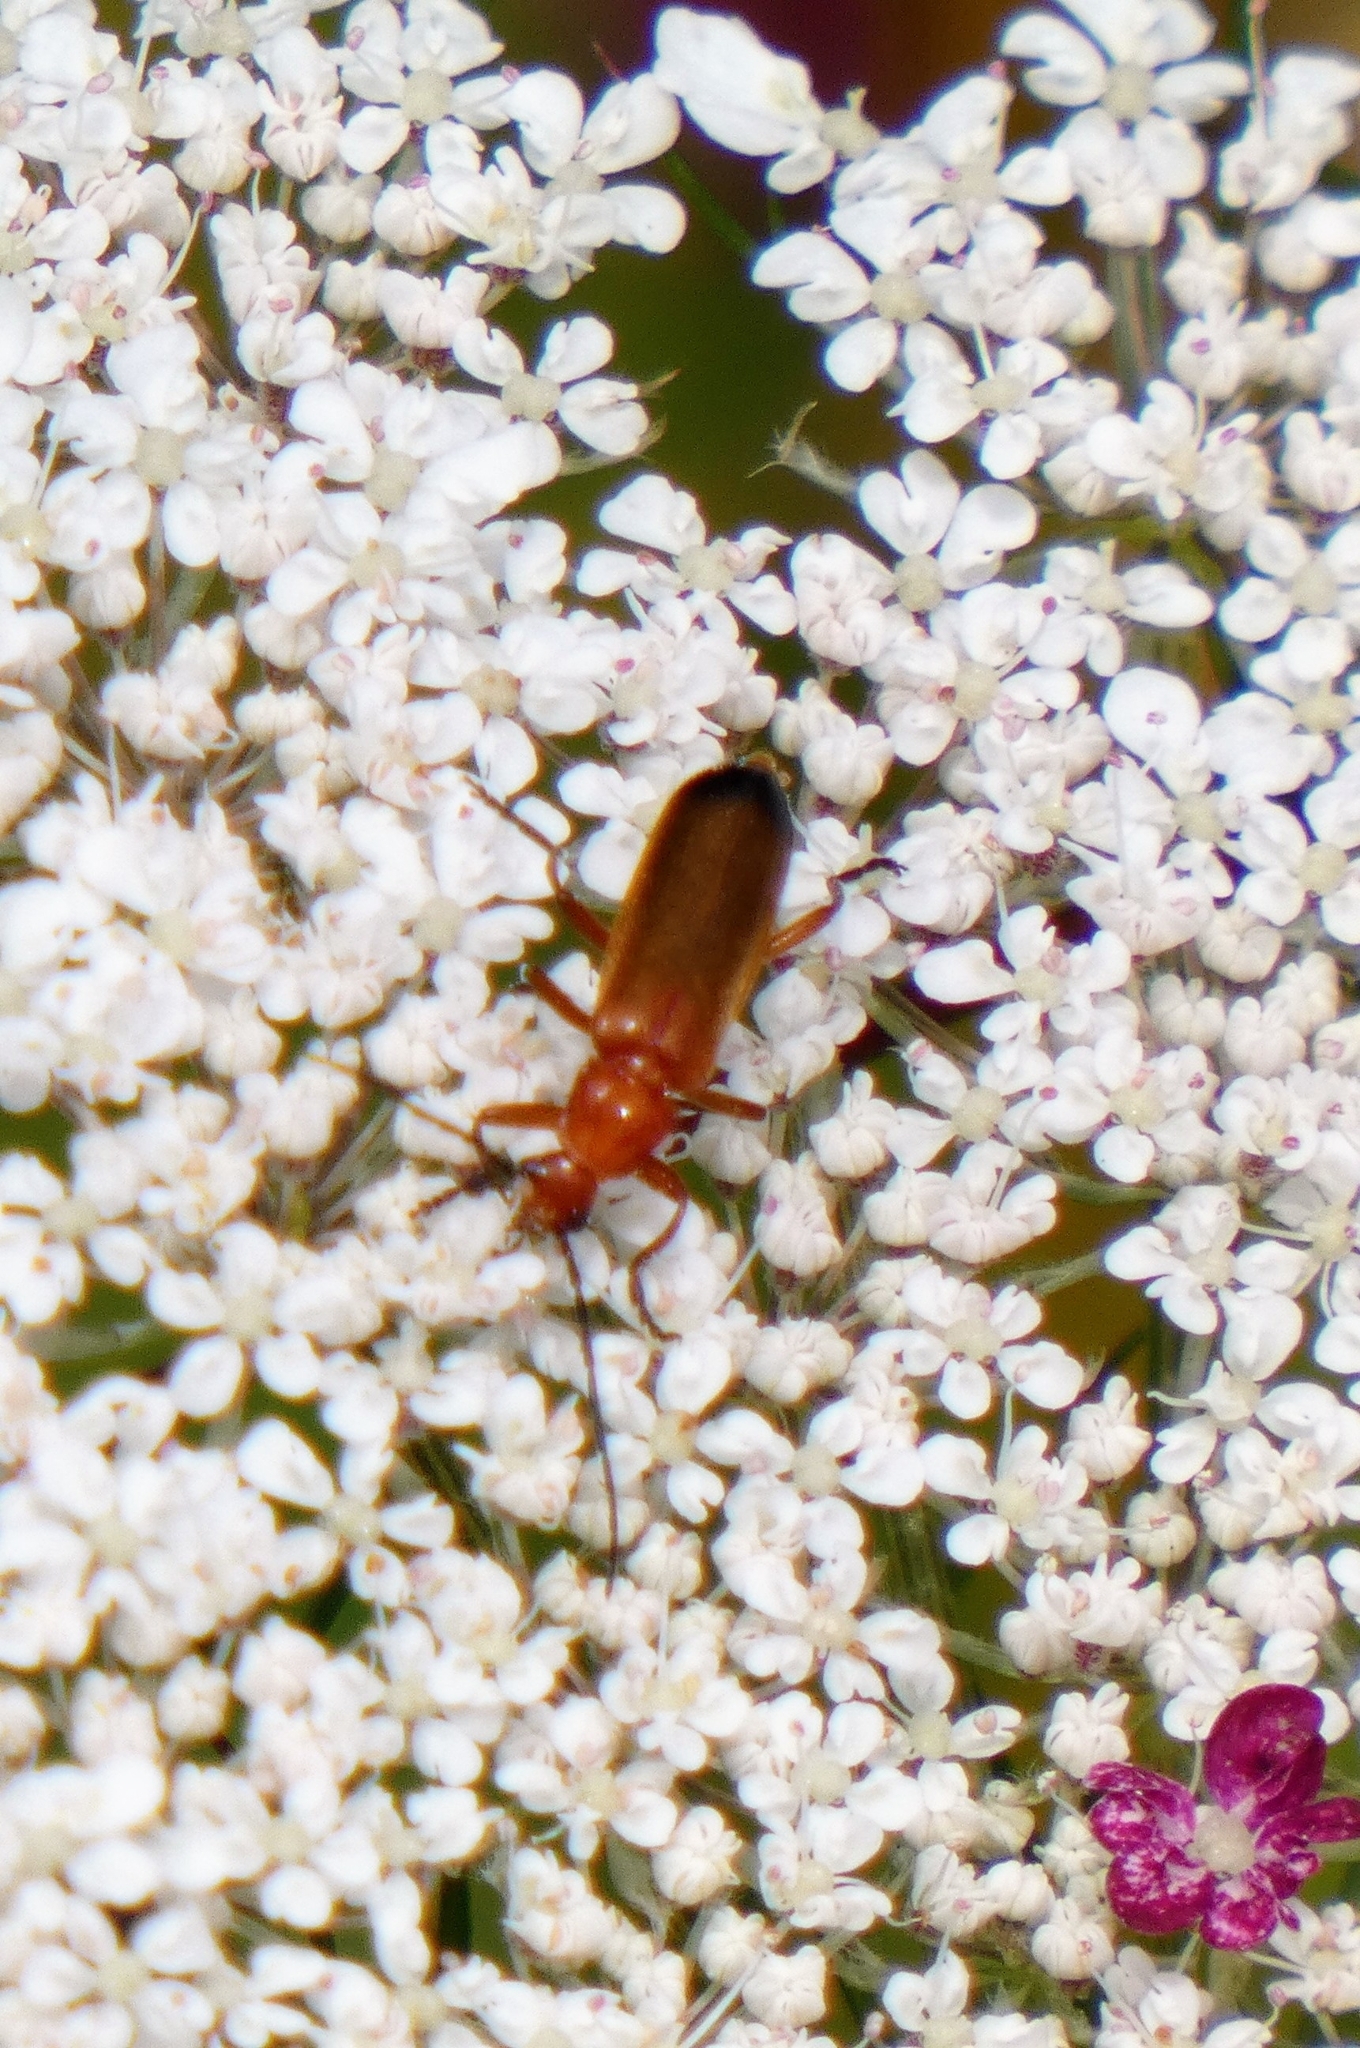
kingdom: Animalia
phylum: Arthropoda
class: Insecta
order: Coleoptera
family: Cantharidae
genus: Rhagonycha
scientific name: Rhagonycha fulva
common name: Common red soldier beetle
